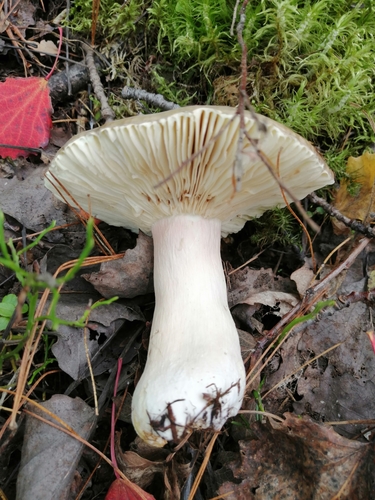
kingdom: Fungi
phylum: Basidiomycota
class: Agaricomycetes
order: Russulales
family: Russulaceae
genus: Russula
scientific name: Russula
